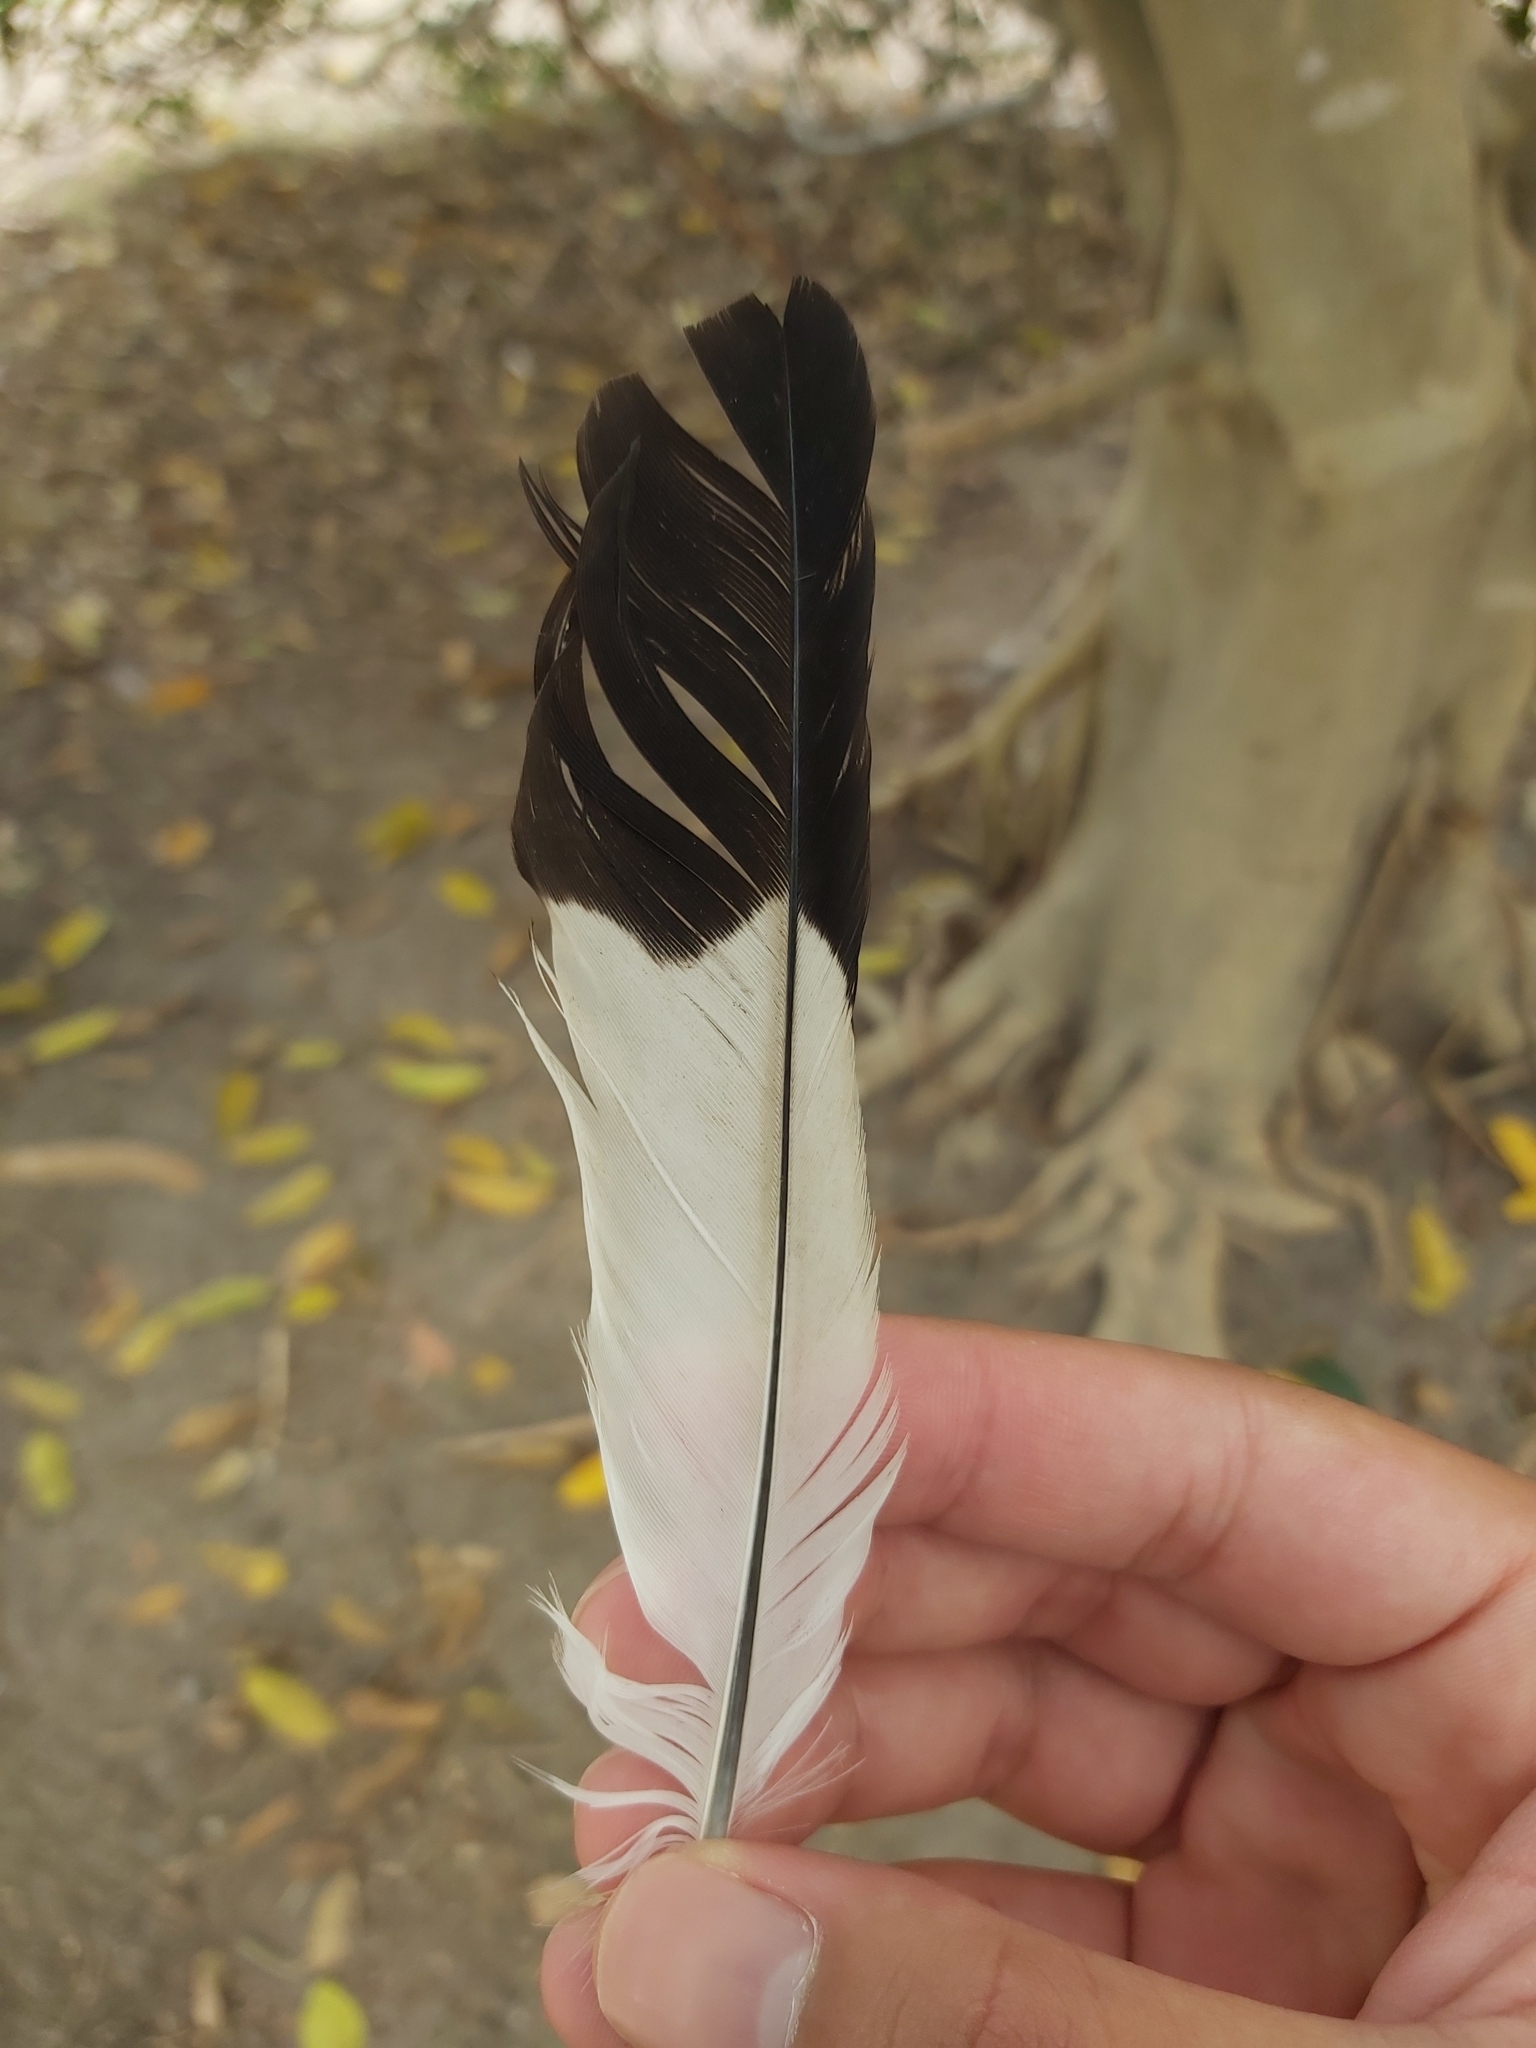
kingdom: Animalia
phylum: Chordata
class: Aves
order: Passeriformes
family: Cracticidae
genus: Gymnorhina
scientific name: Gymnorhina tibicen
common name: Australian magpie
